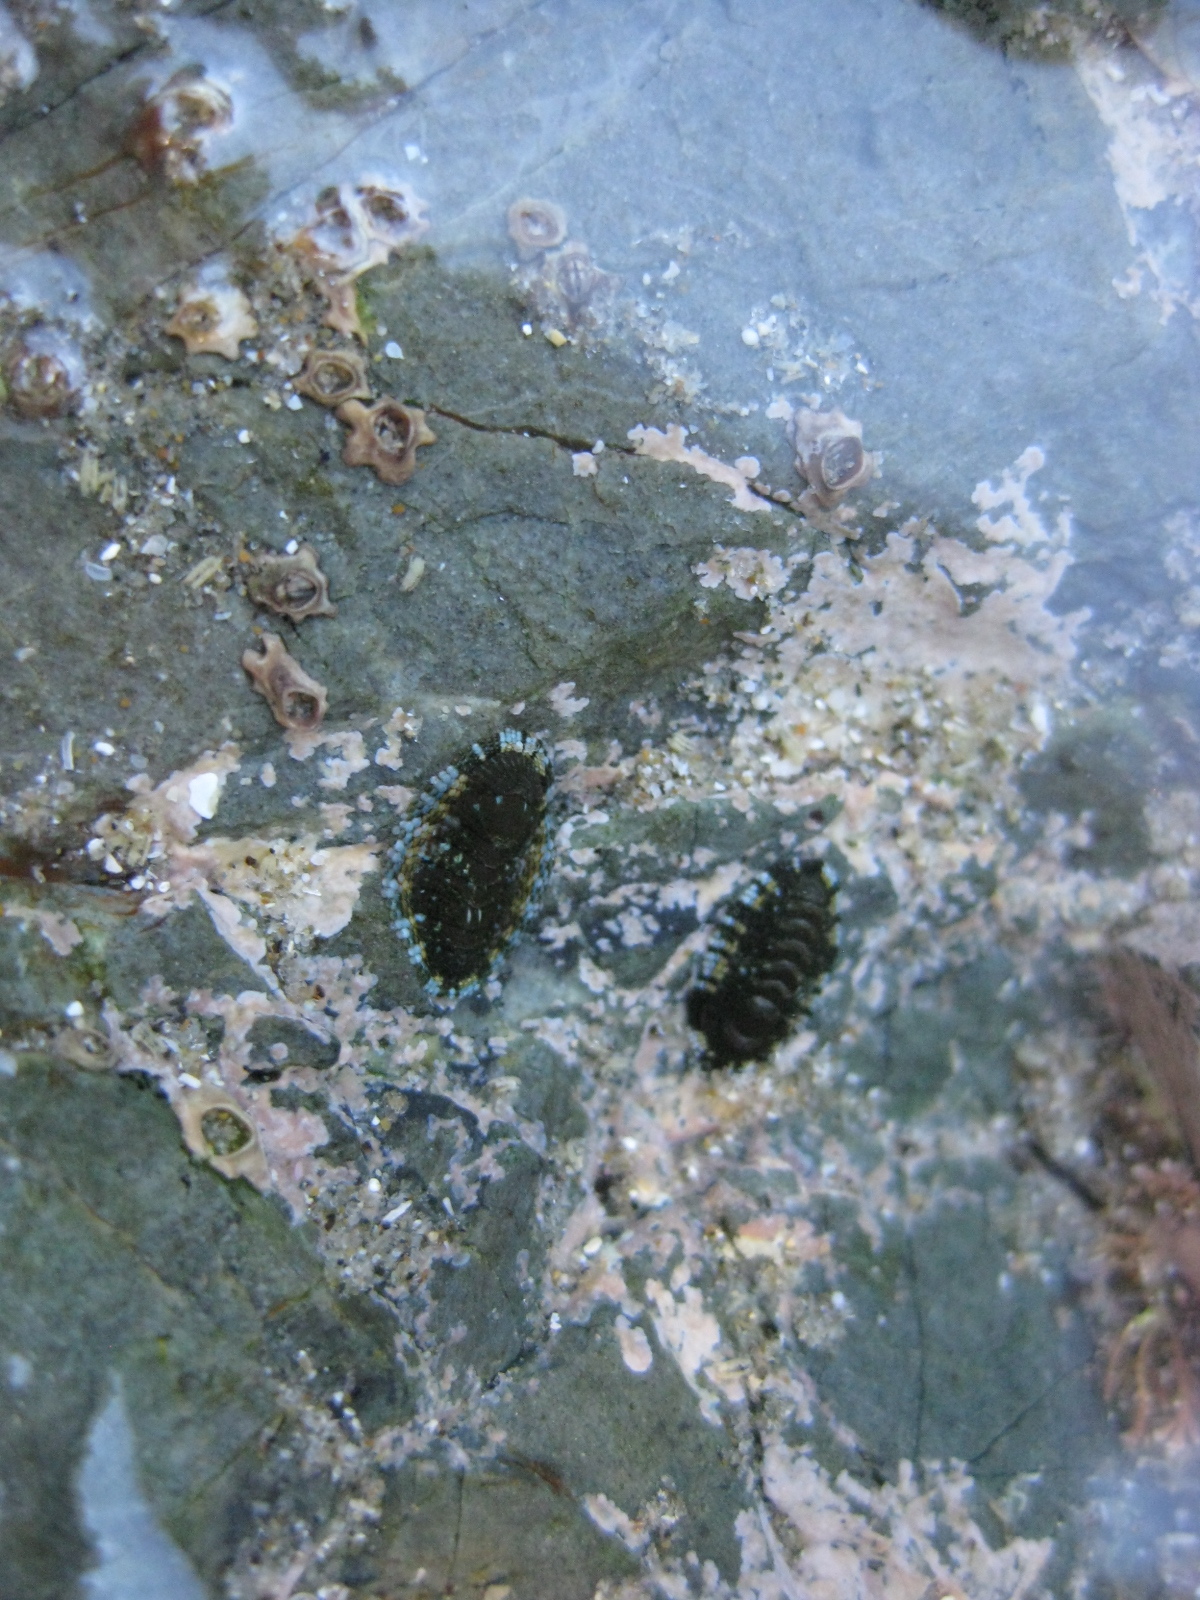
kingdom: Animalia
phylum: Mollusca
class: Polyplacophora
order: Chitonida
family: Chitonidae
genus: Sypharochiton
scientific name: Sypharochiton sinclairi
